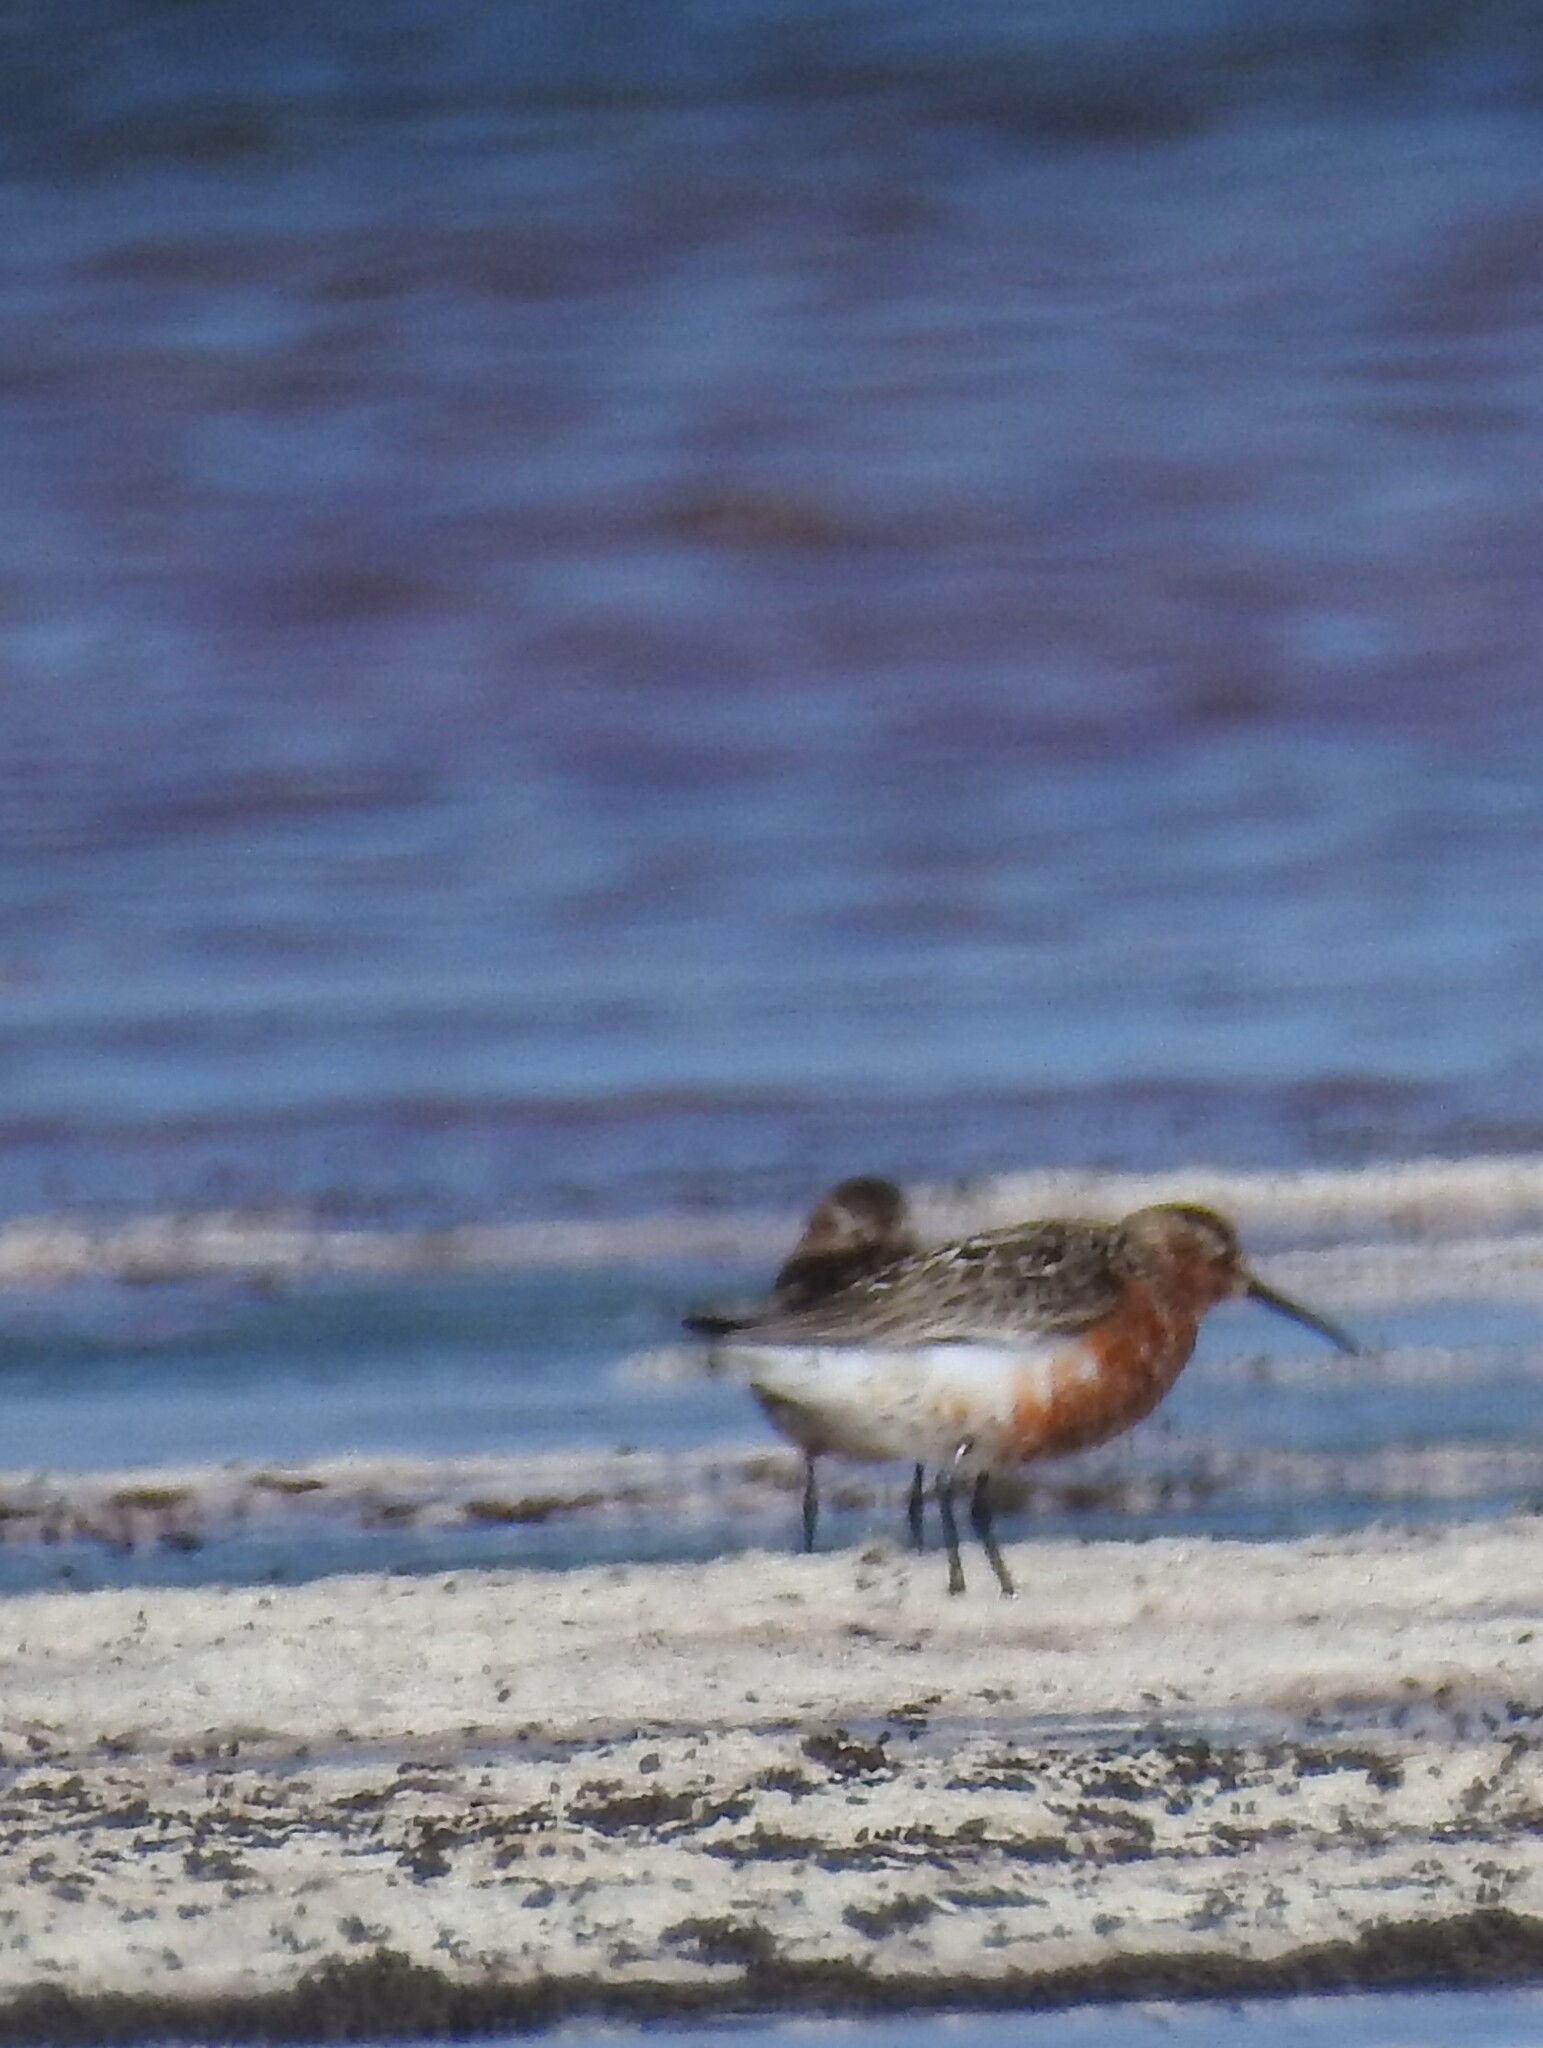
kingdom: Animalia
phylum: Chordata
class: Aves
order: Charadriiformes
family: Scolopacidae
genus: Calidris
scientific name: Calidris ferruginea
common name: Curlew sandpiper
